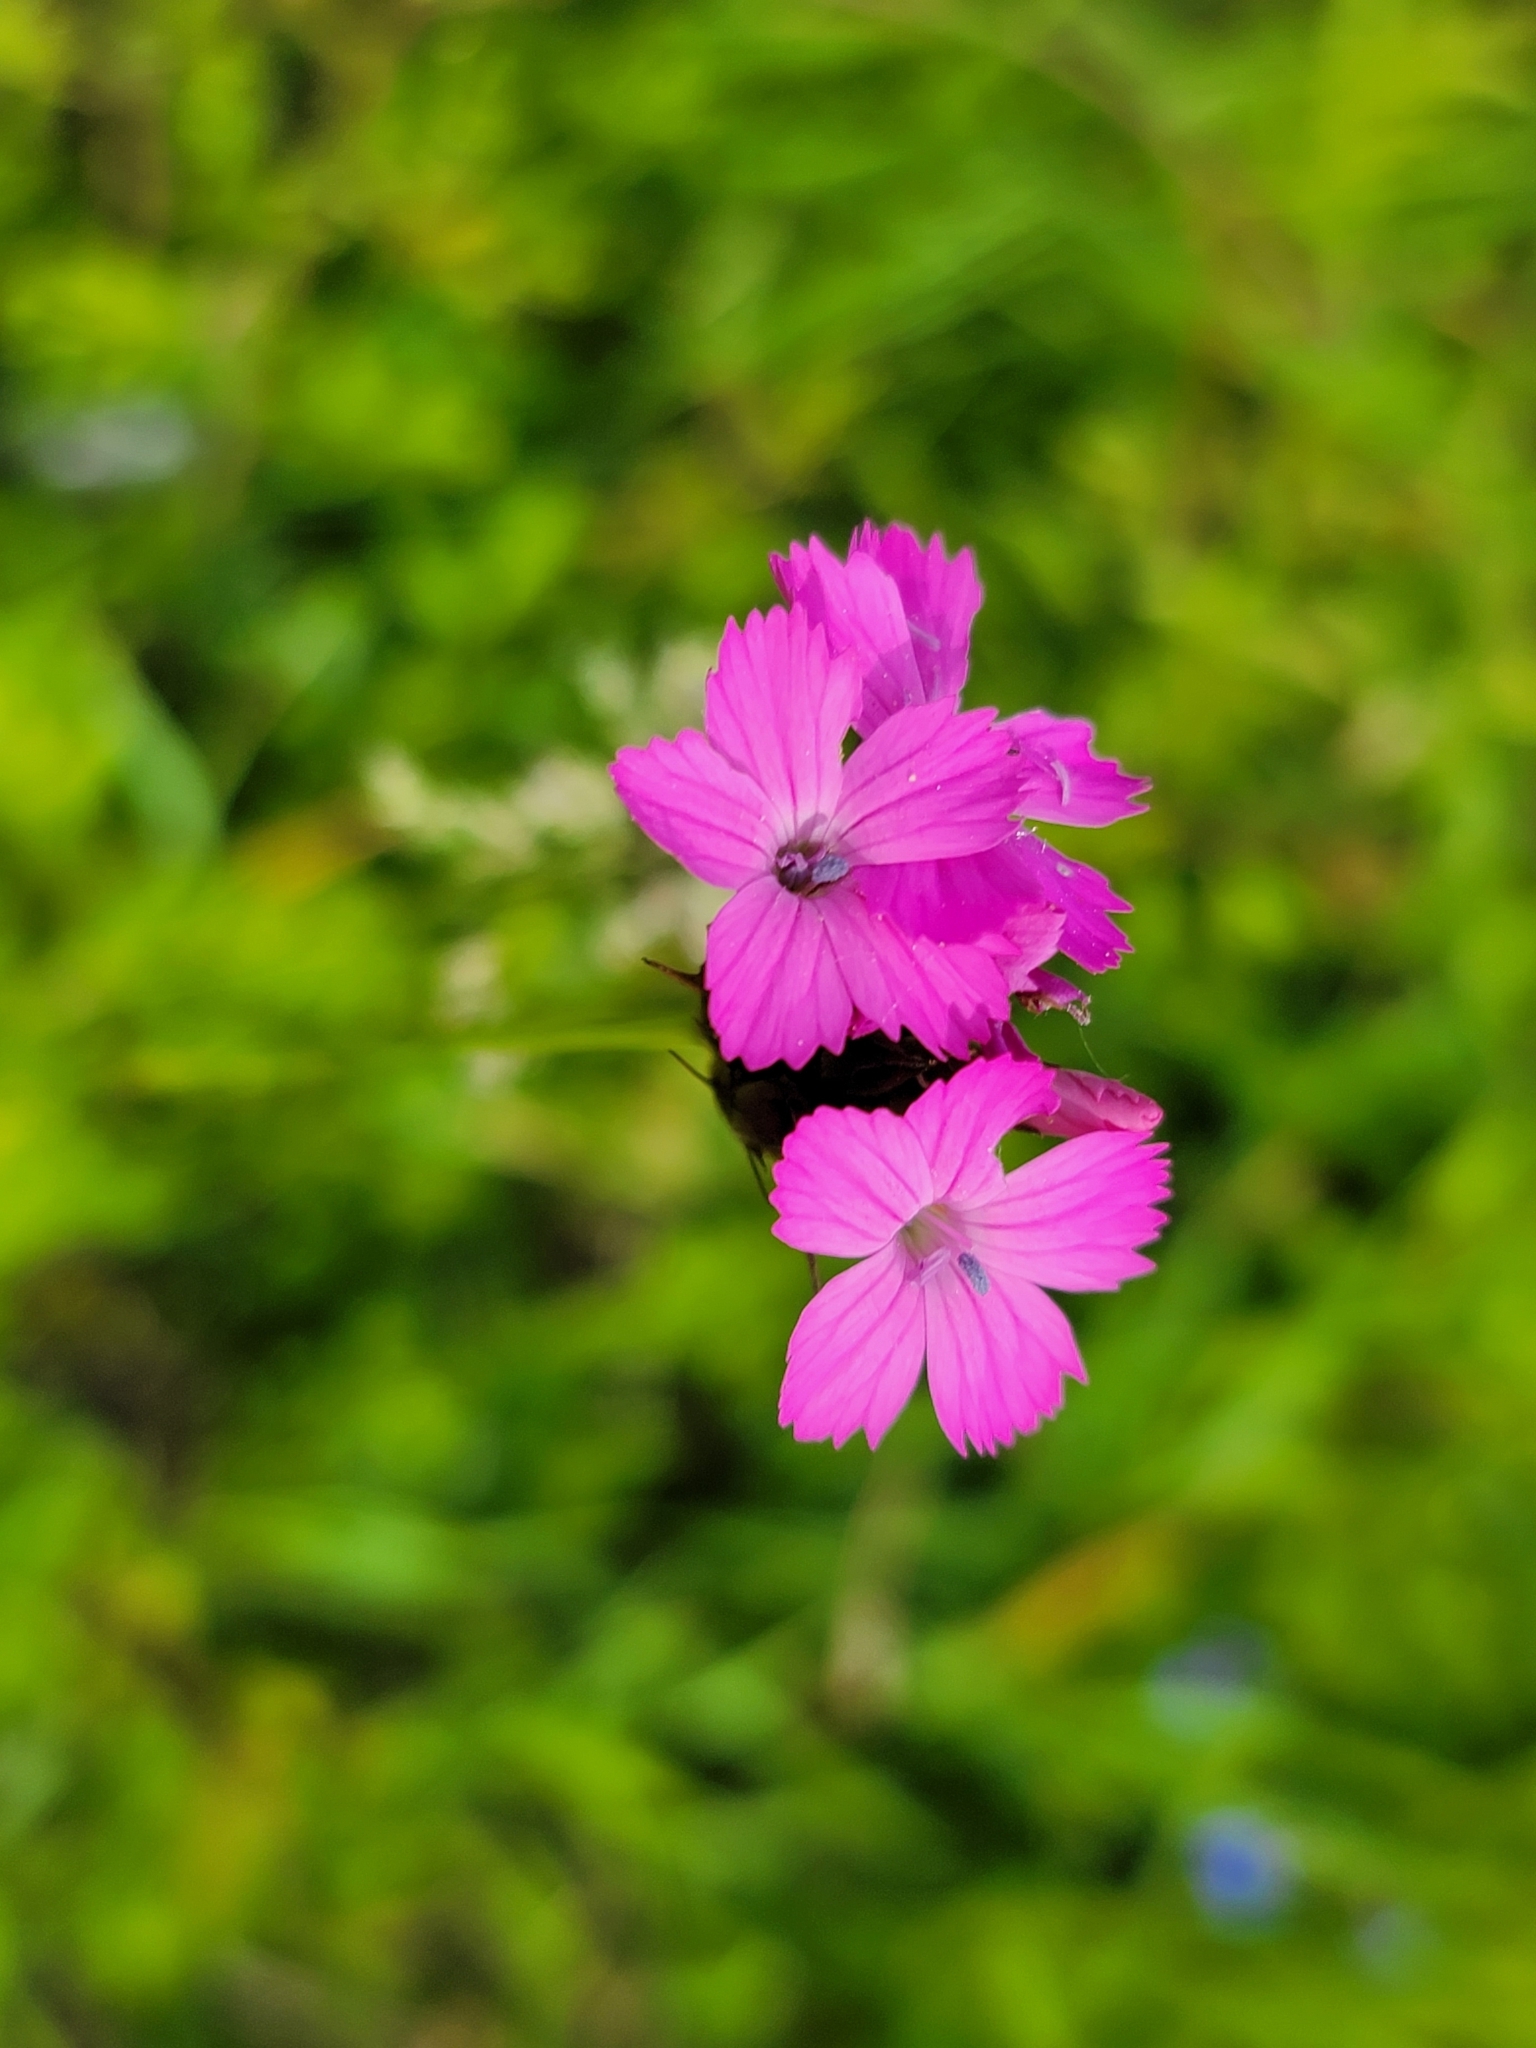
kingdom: Plantae
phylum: Tracheophyta
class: Magnoliopsida
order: Caryophyllales
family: Caryophyllaceae
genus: Dianthus
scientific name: Dianthus carthusianorum
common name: Carthusian pink
